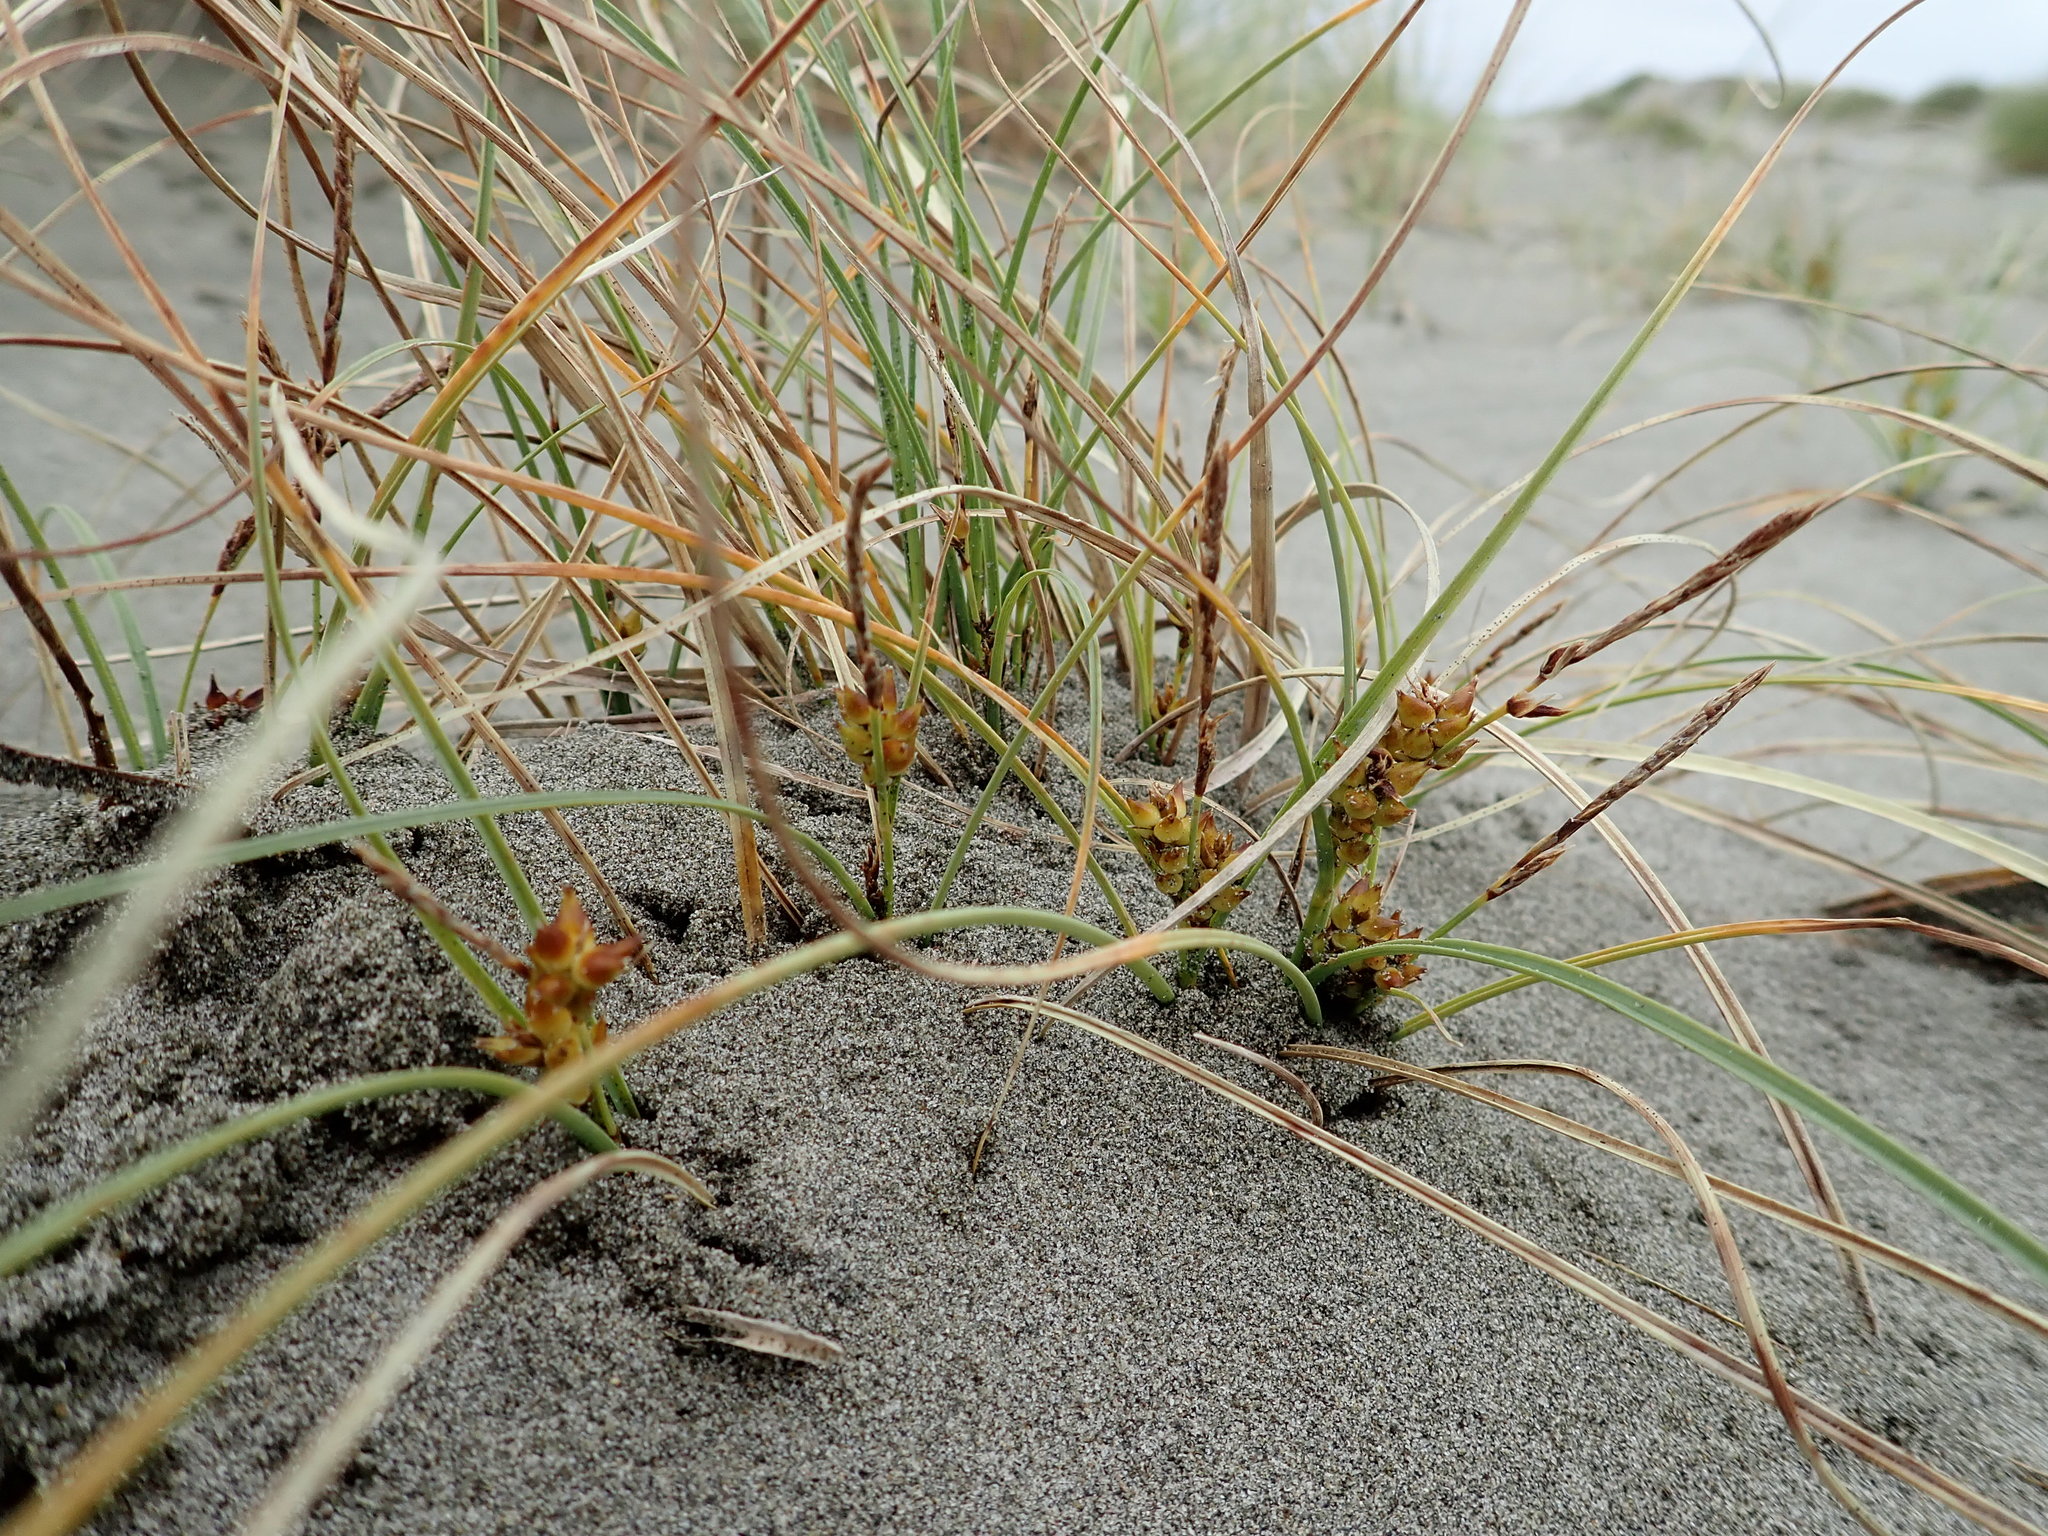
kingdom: Plantae
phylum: Tracheophyta
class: Liliopsida
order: Poales
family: Cyperaceae
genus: Carex
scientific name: Carex pumila
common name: Dwarf sedge
